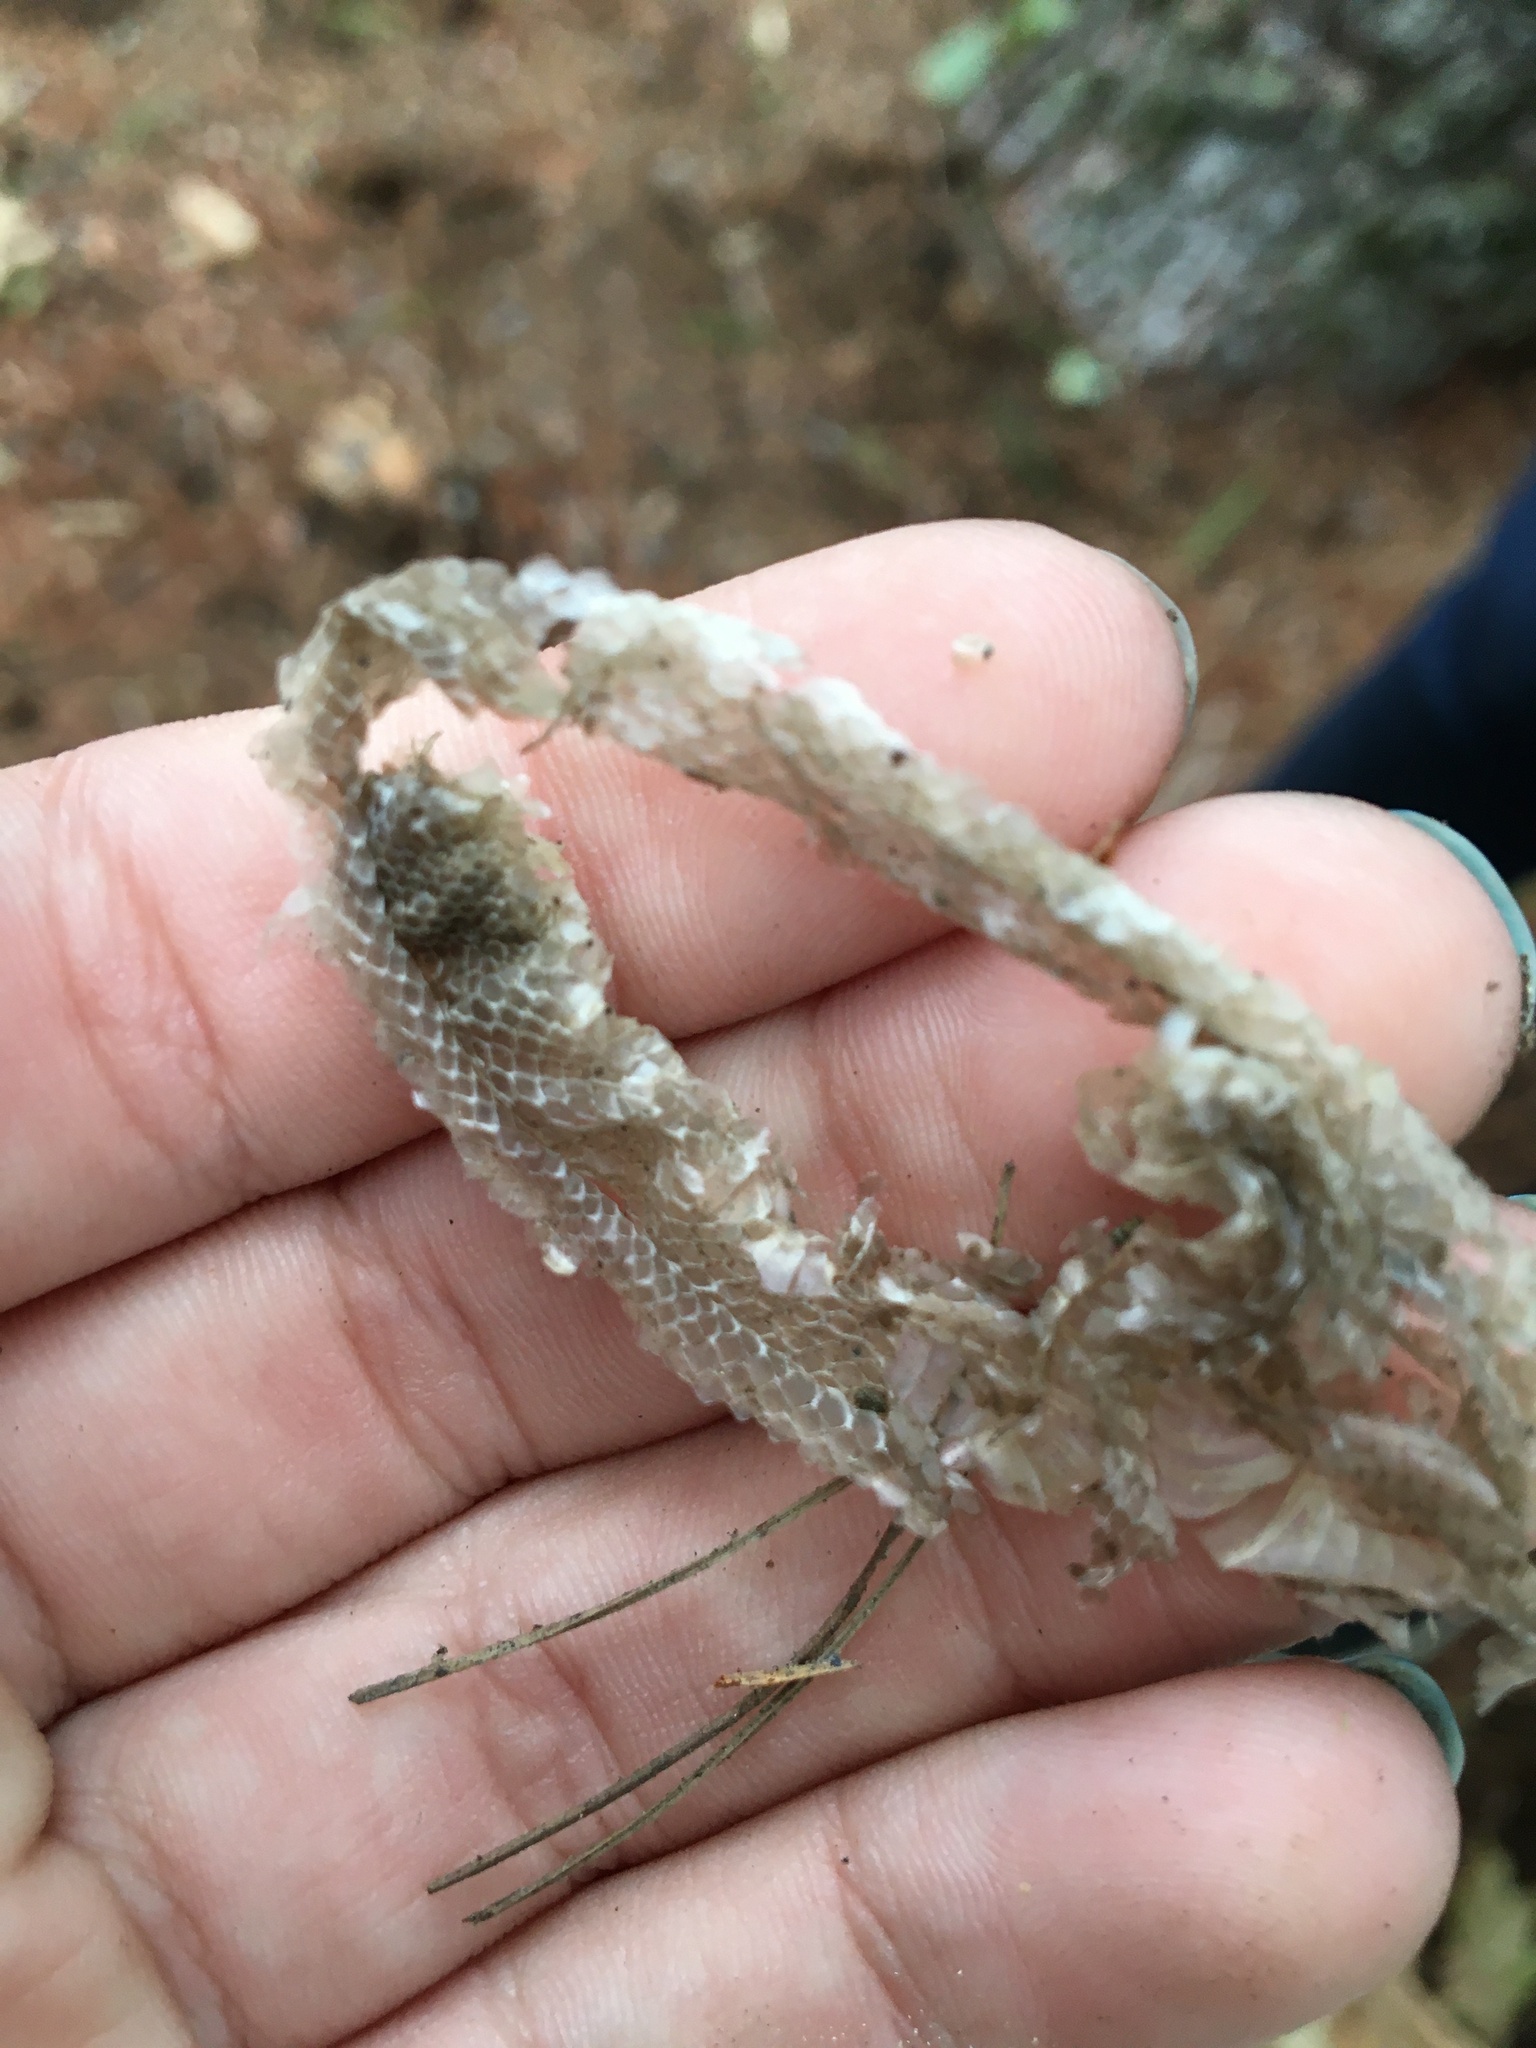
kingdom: Animalia
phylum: Chordata
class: Squamata
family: Colubridae
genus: Diadophis
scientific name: Diadophis punctatus
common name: Ringneck snake
